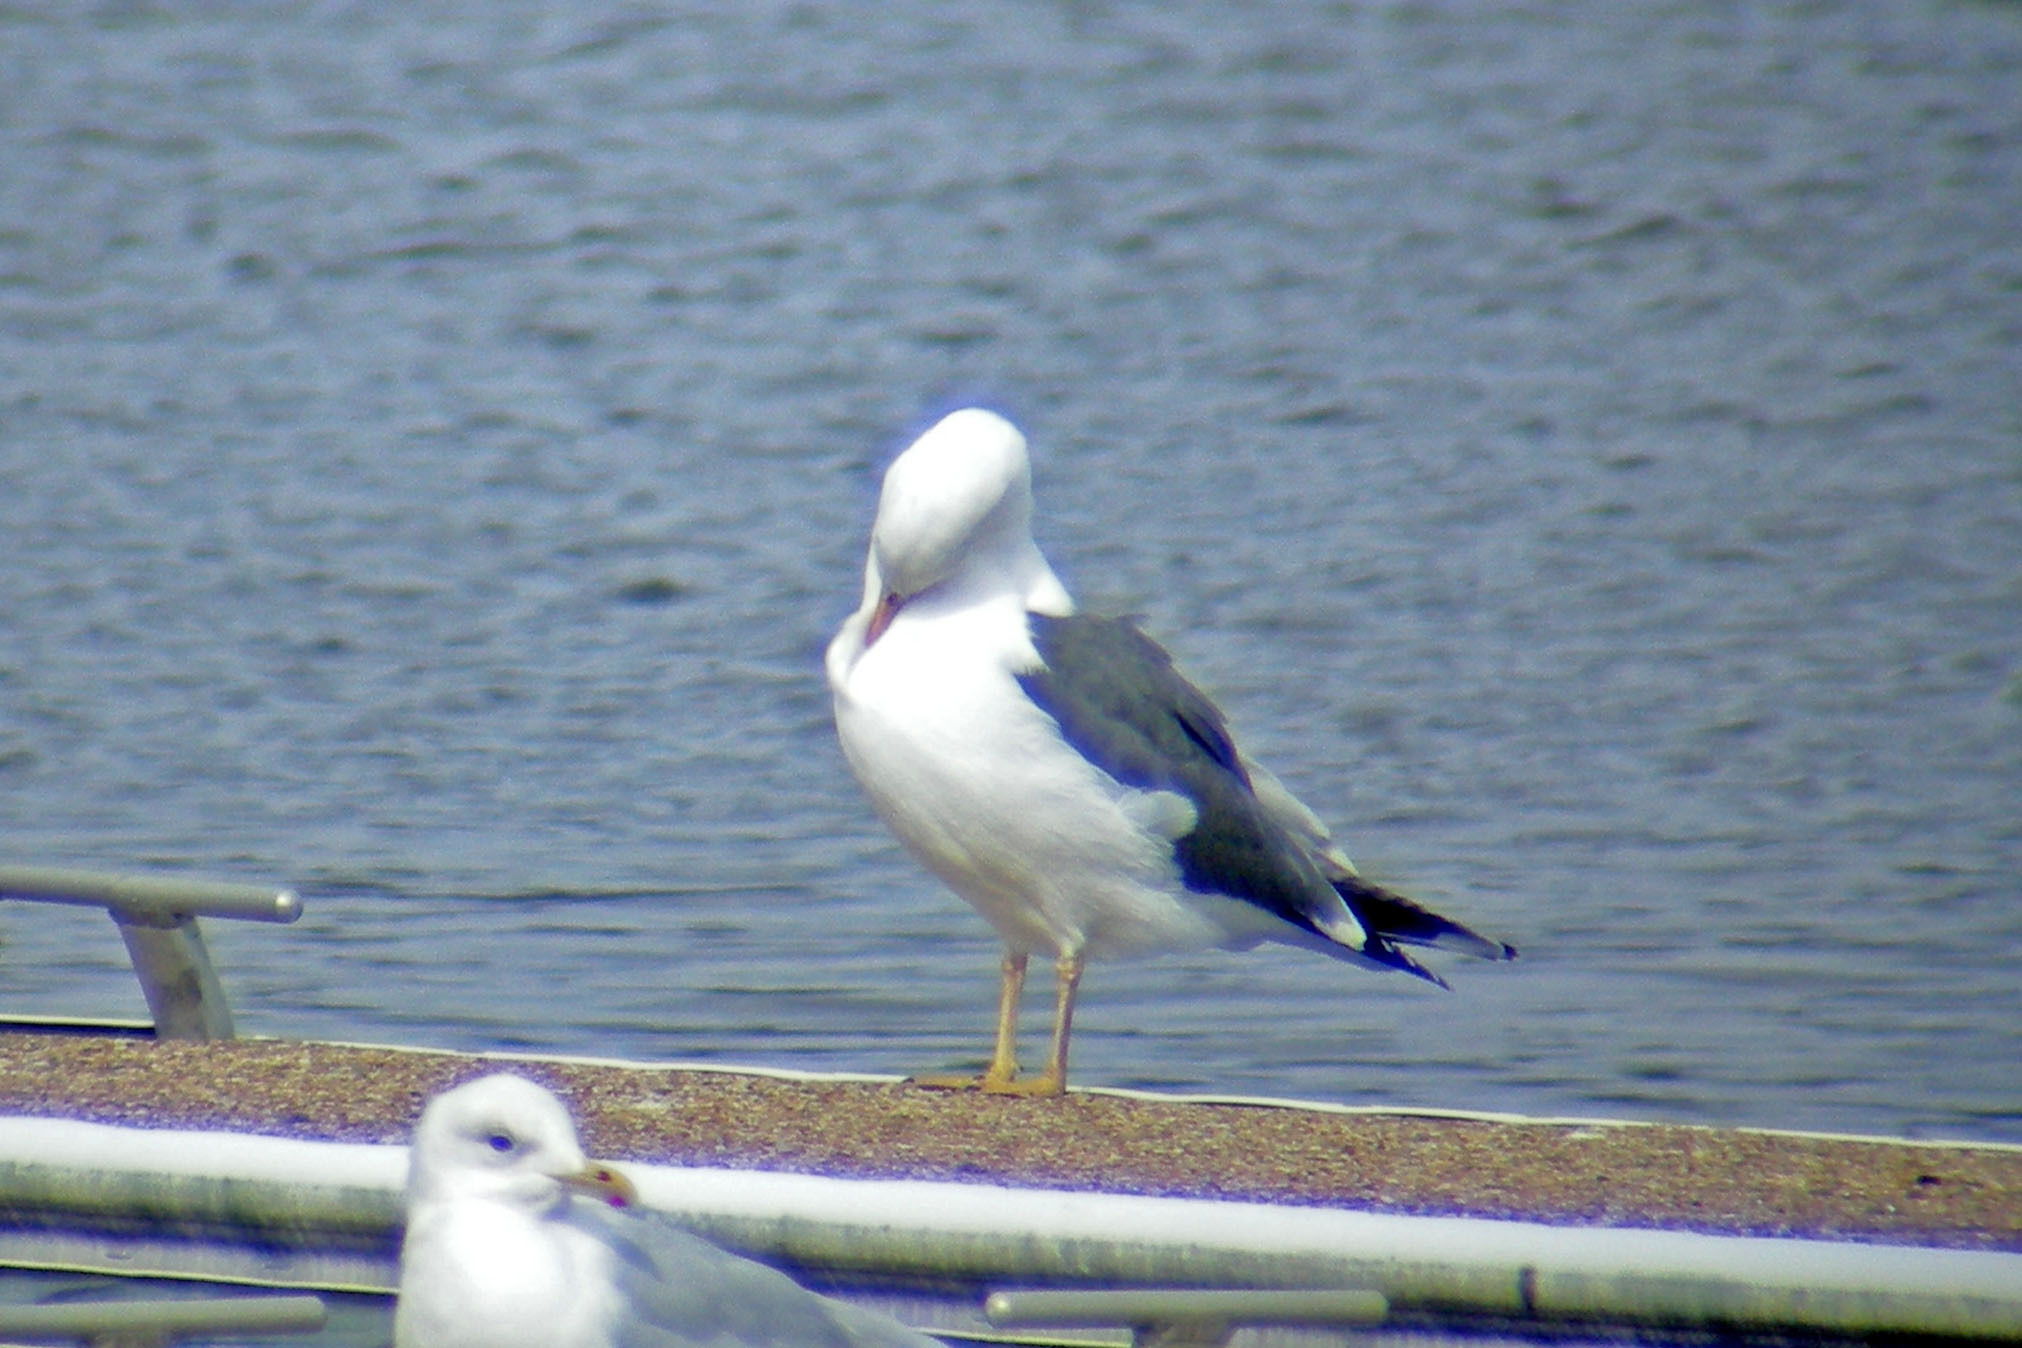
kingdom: Animalia
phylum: Chordata
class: Aves
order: Charadriiformes
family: Laridae
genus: Larus
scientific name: Larus fuscus
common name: Lesser black-backed gull
